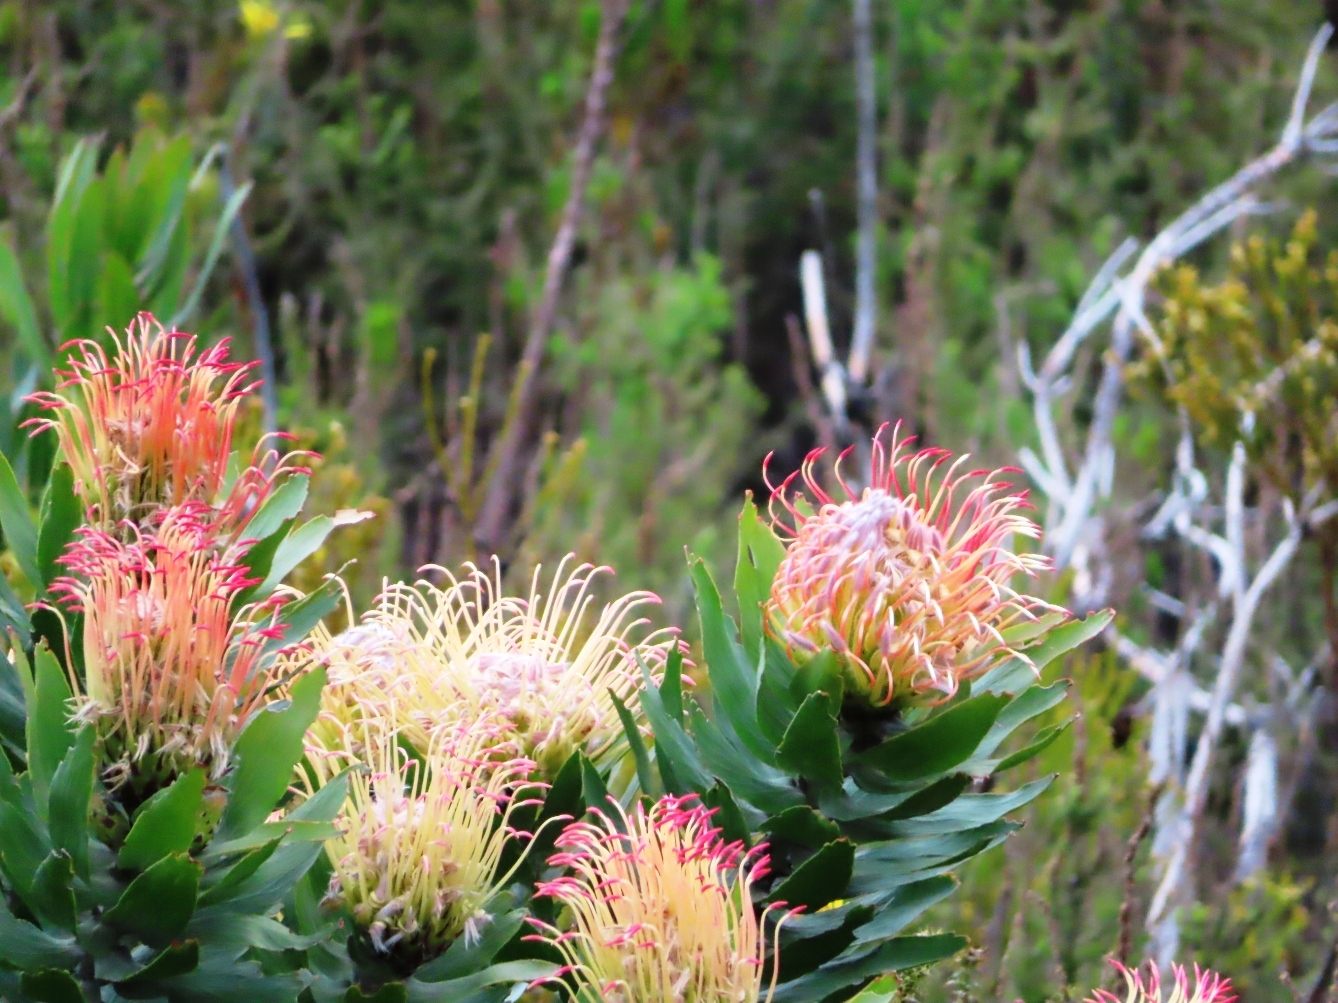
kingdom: Plantae
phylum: Tracheophyta
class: Magnoliopsida
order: Proteales
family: Proteaceae
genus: Leucospermum
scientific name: Leucospermum gueinzii
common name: Kloof fountain pincushion
